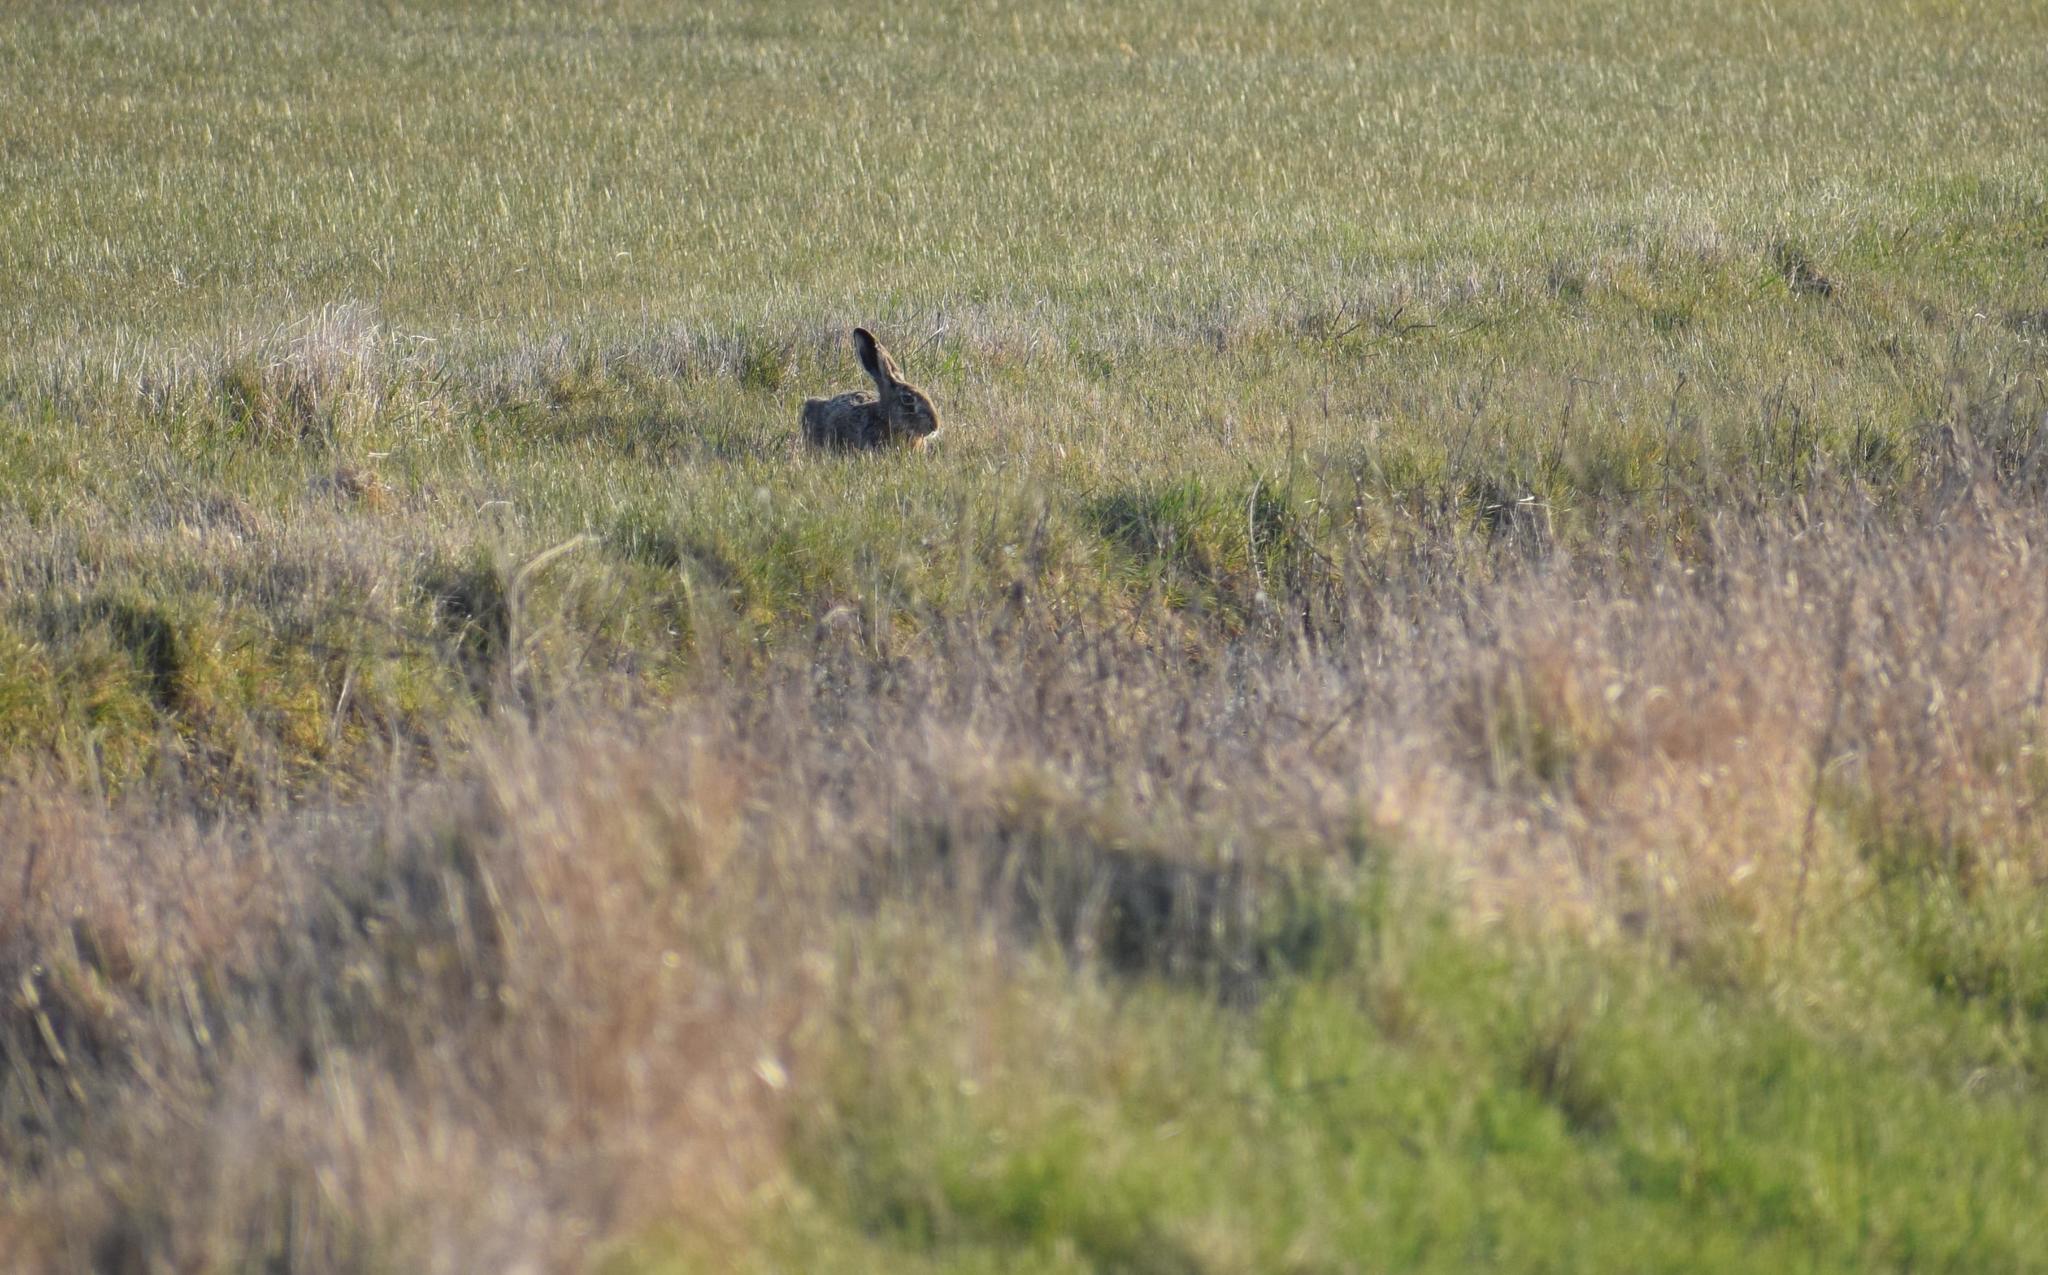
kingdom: Animalia
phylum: Chordata
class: Mammalia
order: Lagomorpha
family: Leporidae
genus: Lepus
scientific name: Lepus europaeus
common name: European hare
